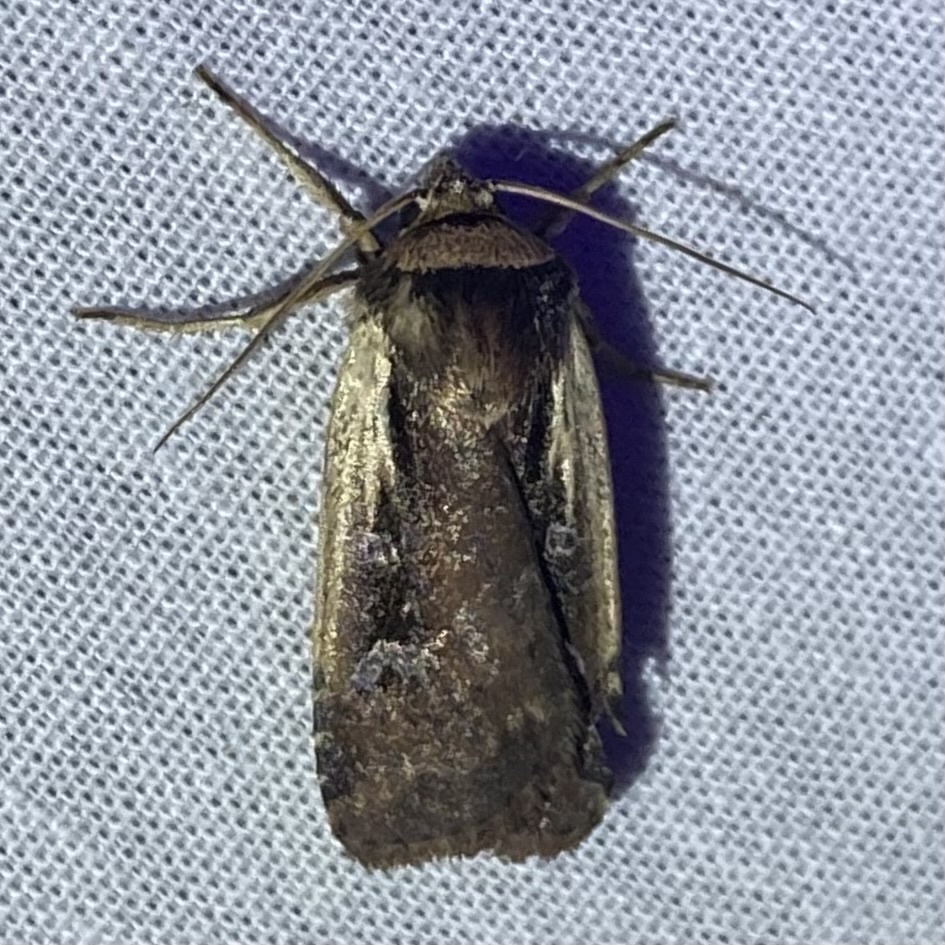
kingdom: Animalia
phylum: Arthropoda
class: Insecta
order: Lepidoptera
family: Noctuidae
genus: Ochropleura
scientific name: Ochropleura implecta
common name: Flame-shouldered dart
